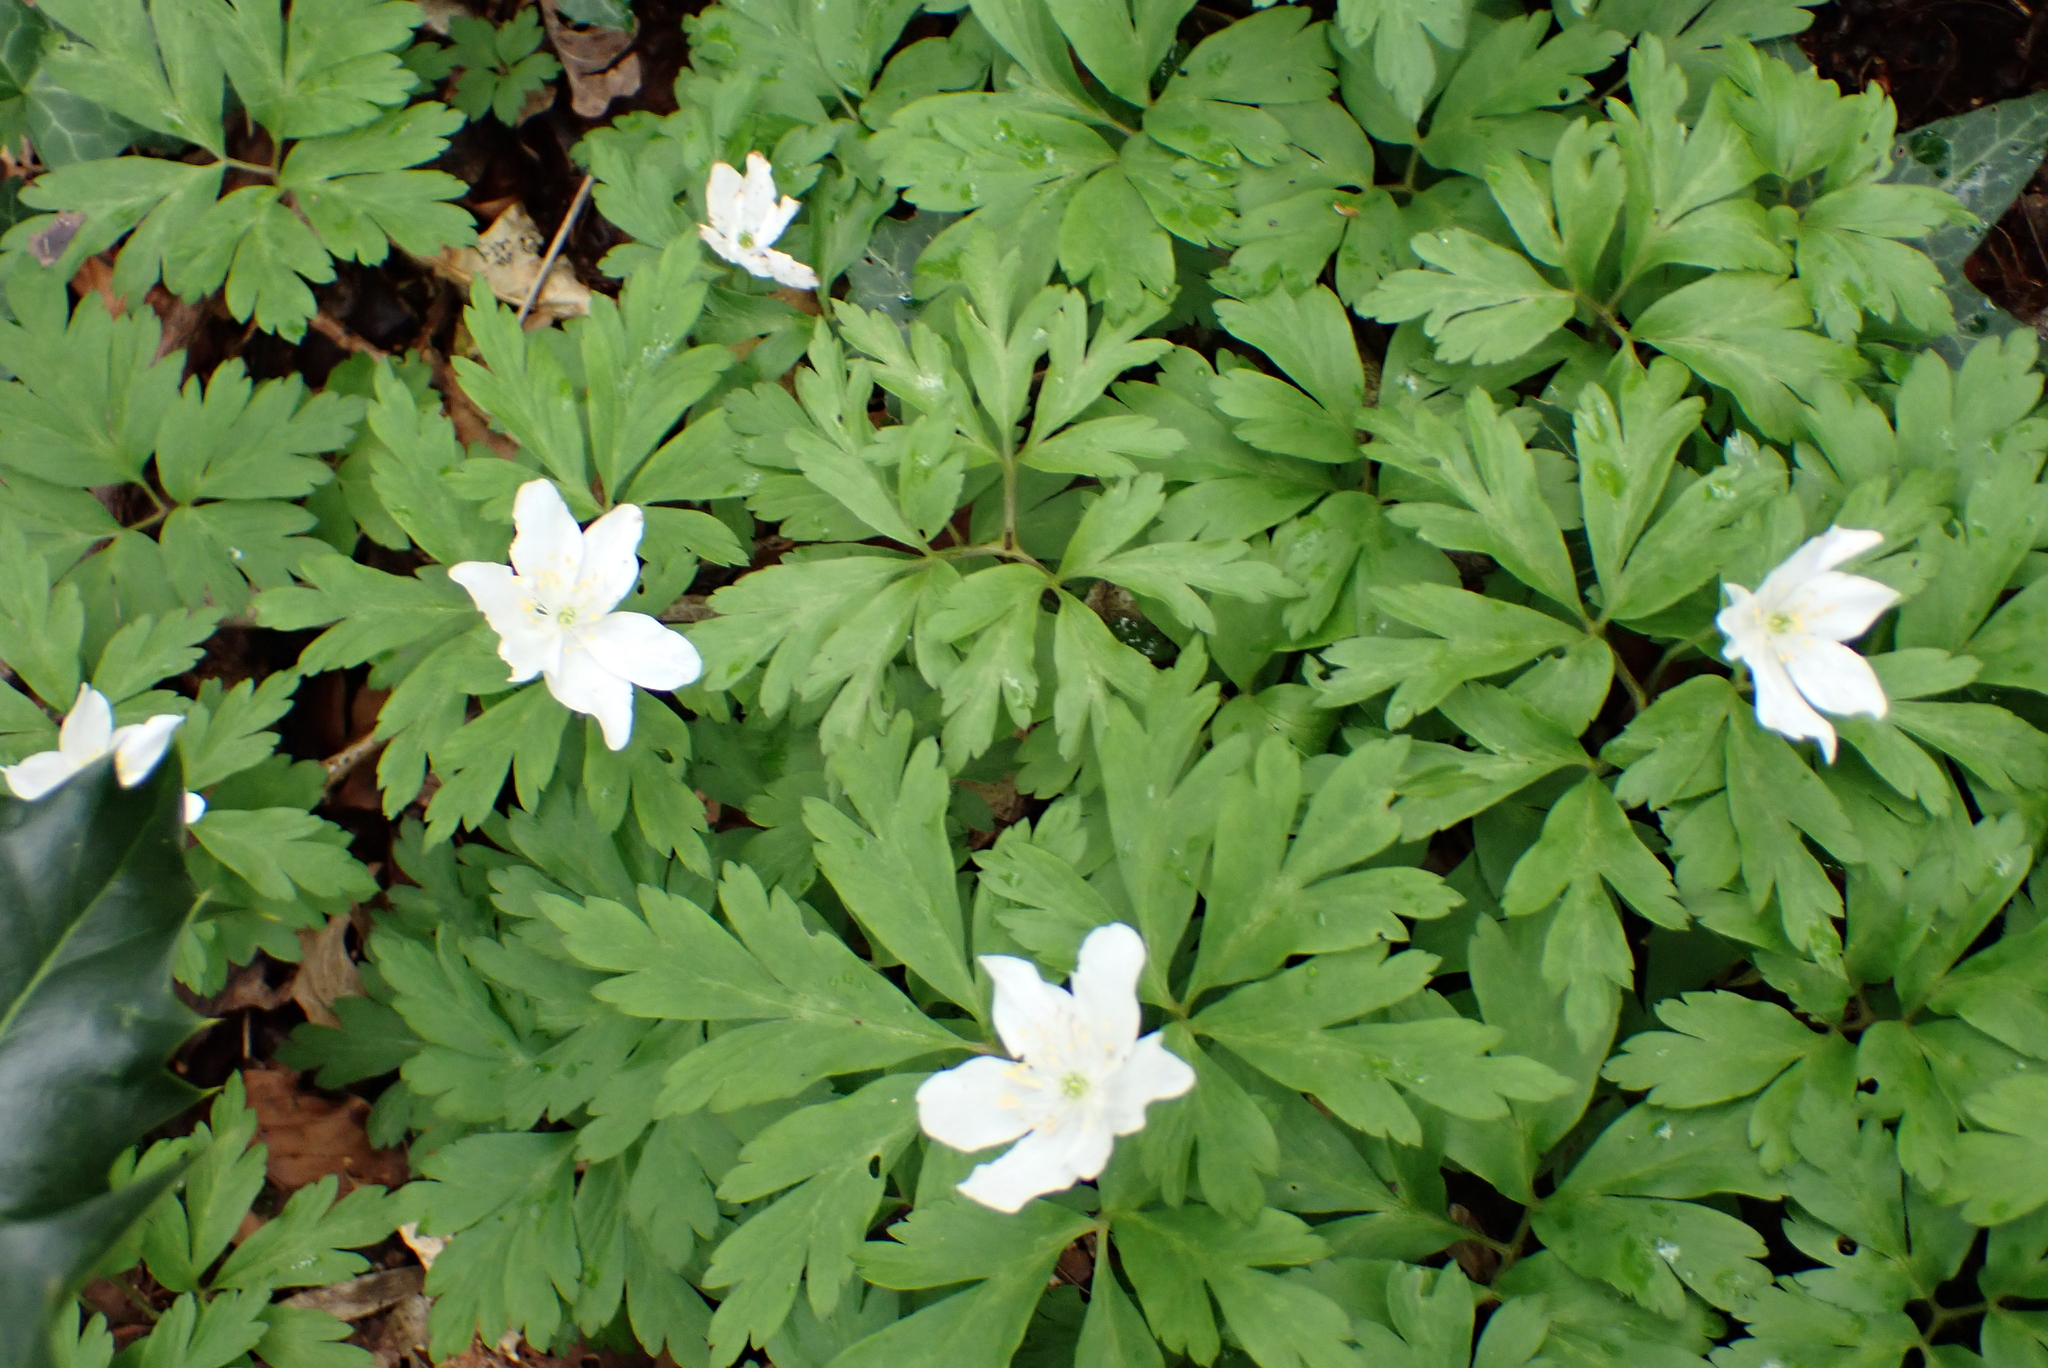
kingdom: Plantae
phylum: Tracheophyta
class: Magnoliopsida
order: Ranunculales
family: Ranunculaceae
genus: Anemone
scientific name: Anemone nemorosa
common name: Wood anemone
